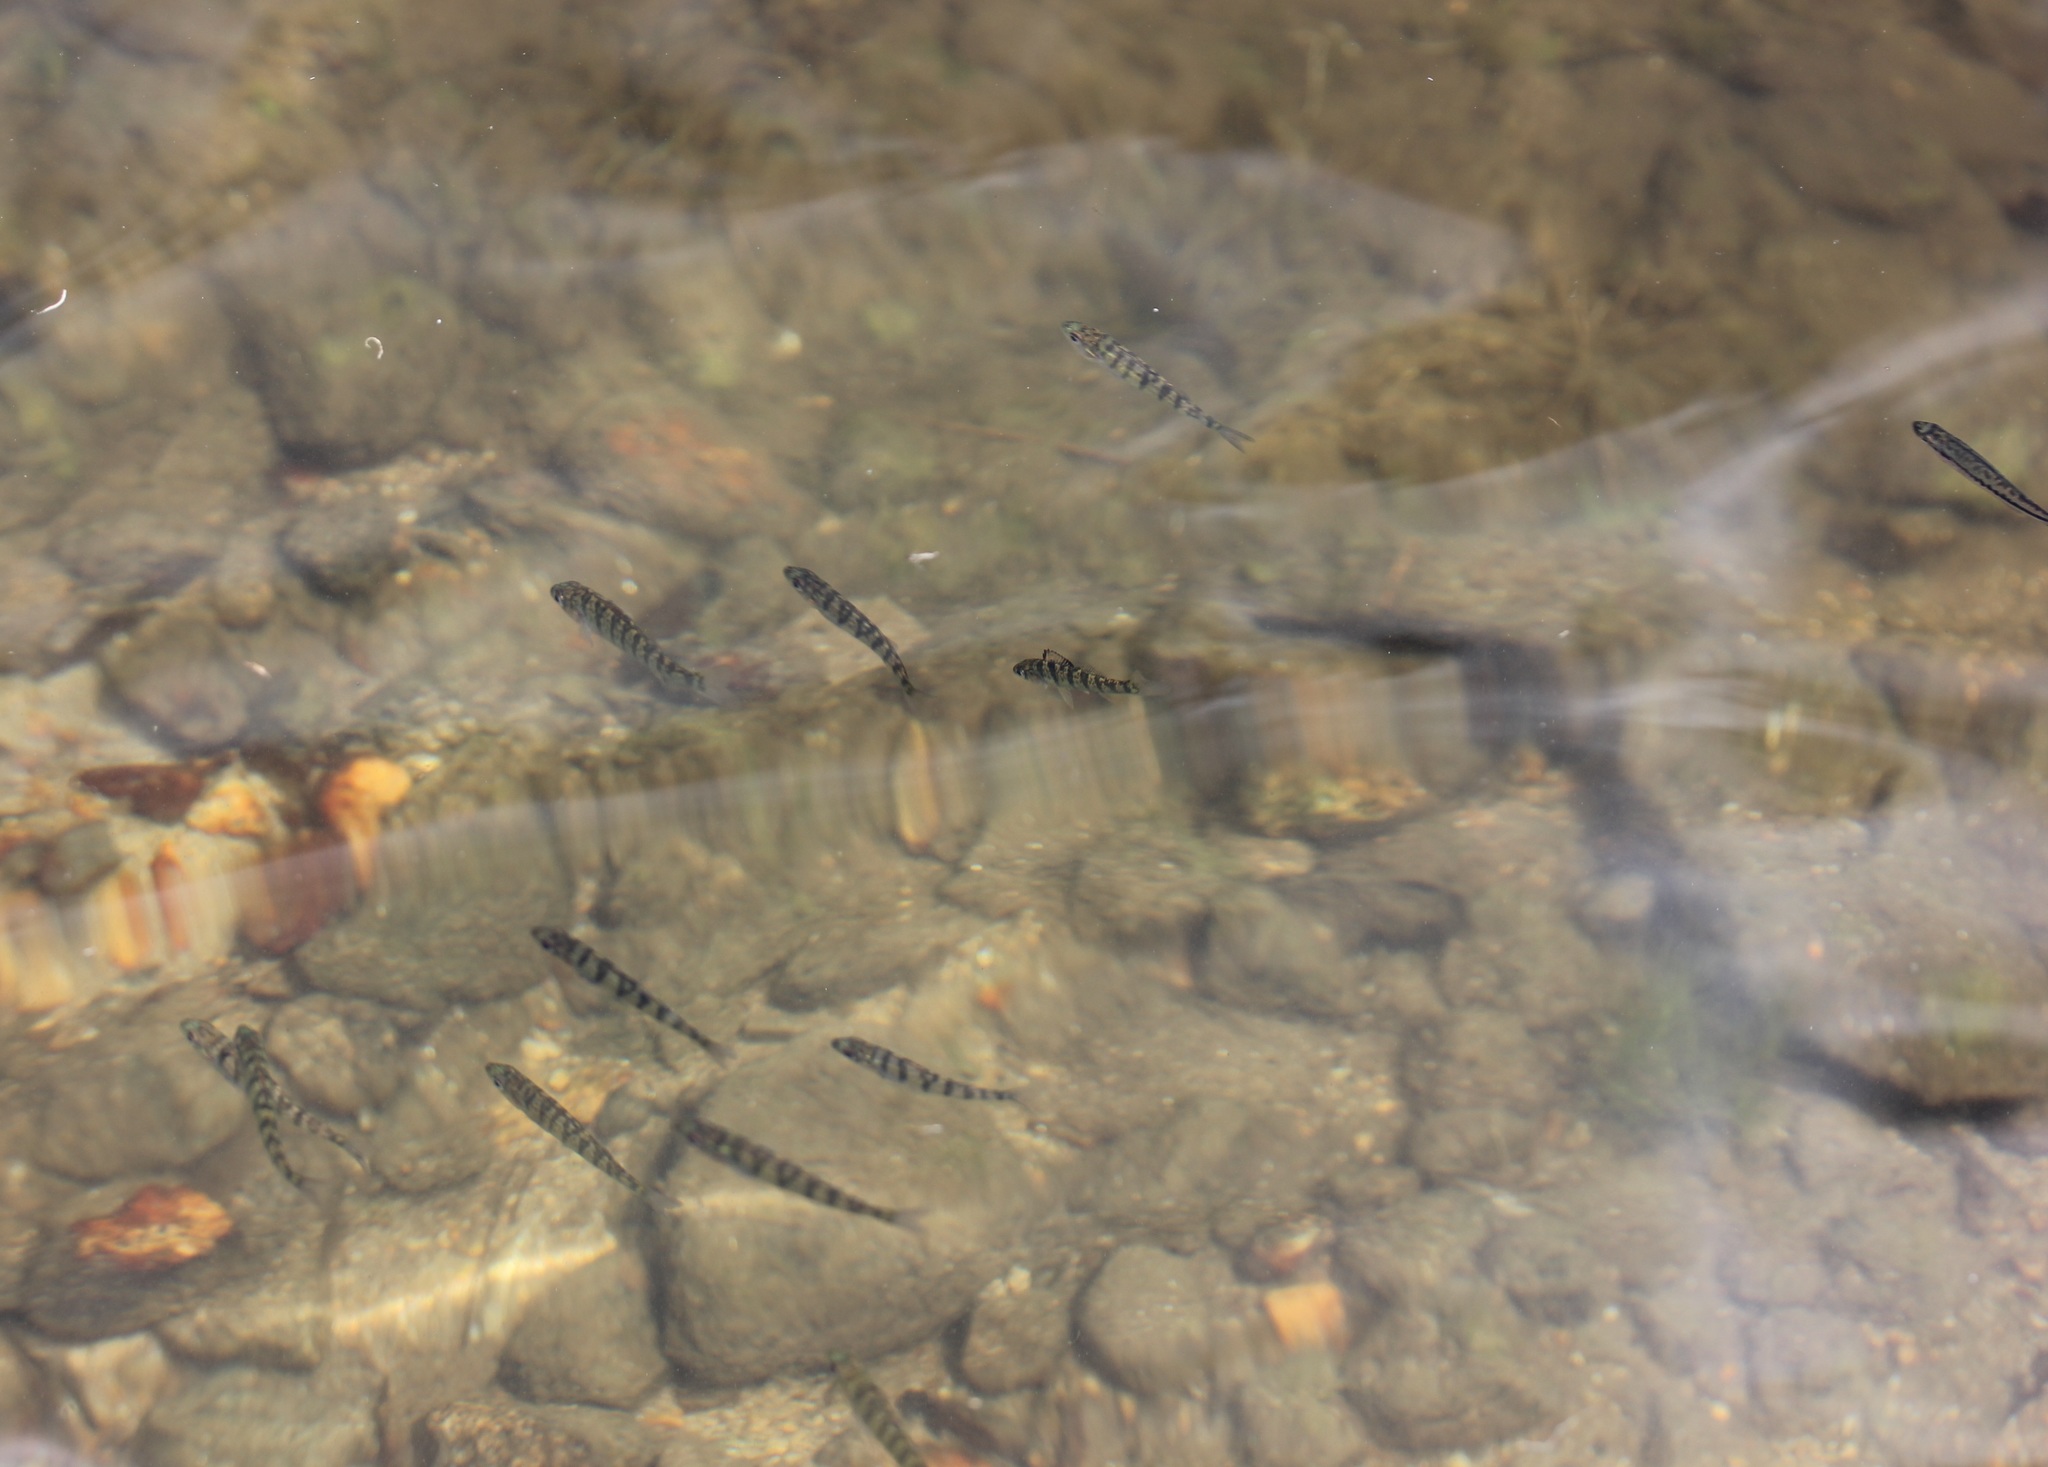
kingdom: Animalia
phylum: Chordata
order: Perciformes
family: Percidae
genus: Perca
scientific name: Perca flavescens
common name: Yellow perch
